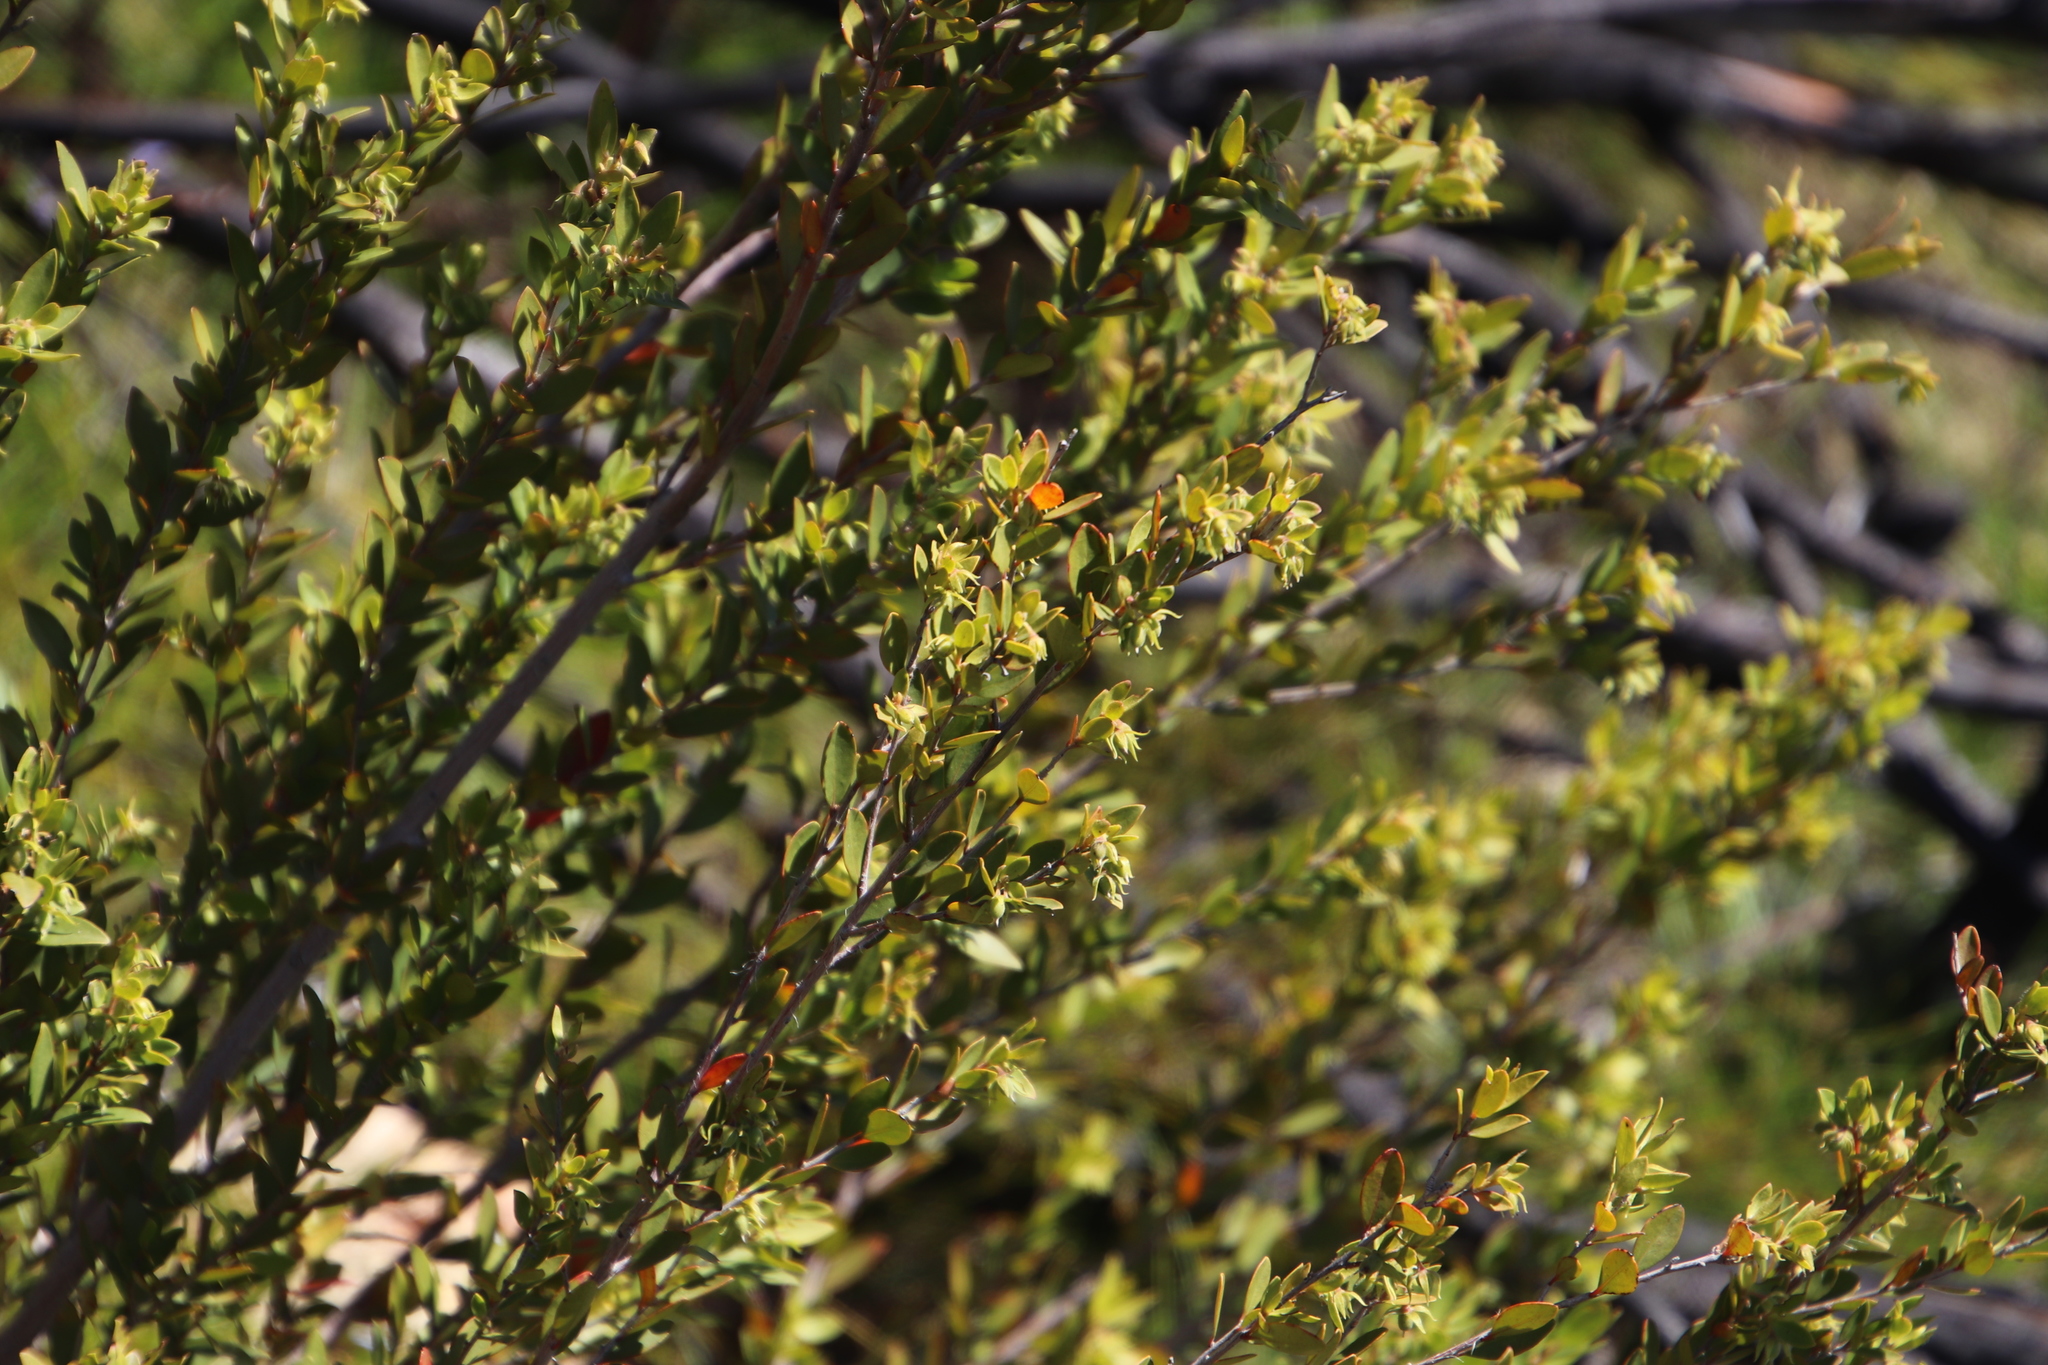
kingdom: Plantae
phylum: Tracheophyta
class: Magnoliopsida
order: Ericales
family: Ebenaceae
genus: Diospyros
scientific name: Diospyros glabra
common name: Fynbos star apple
